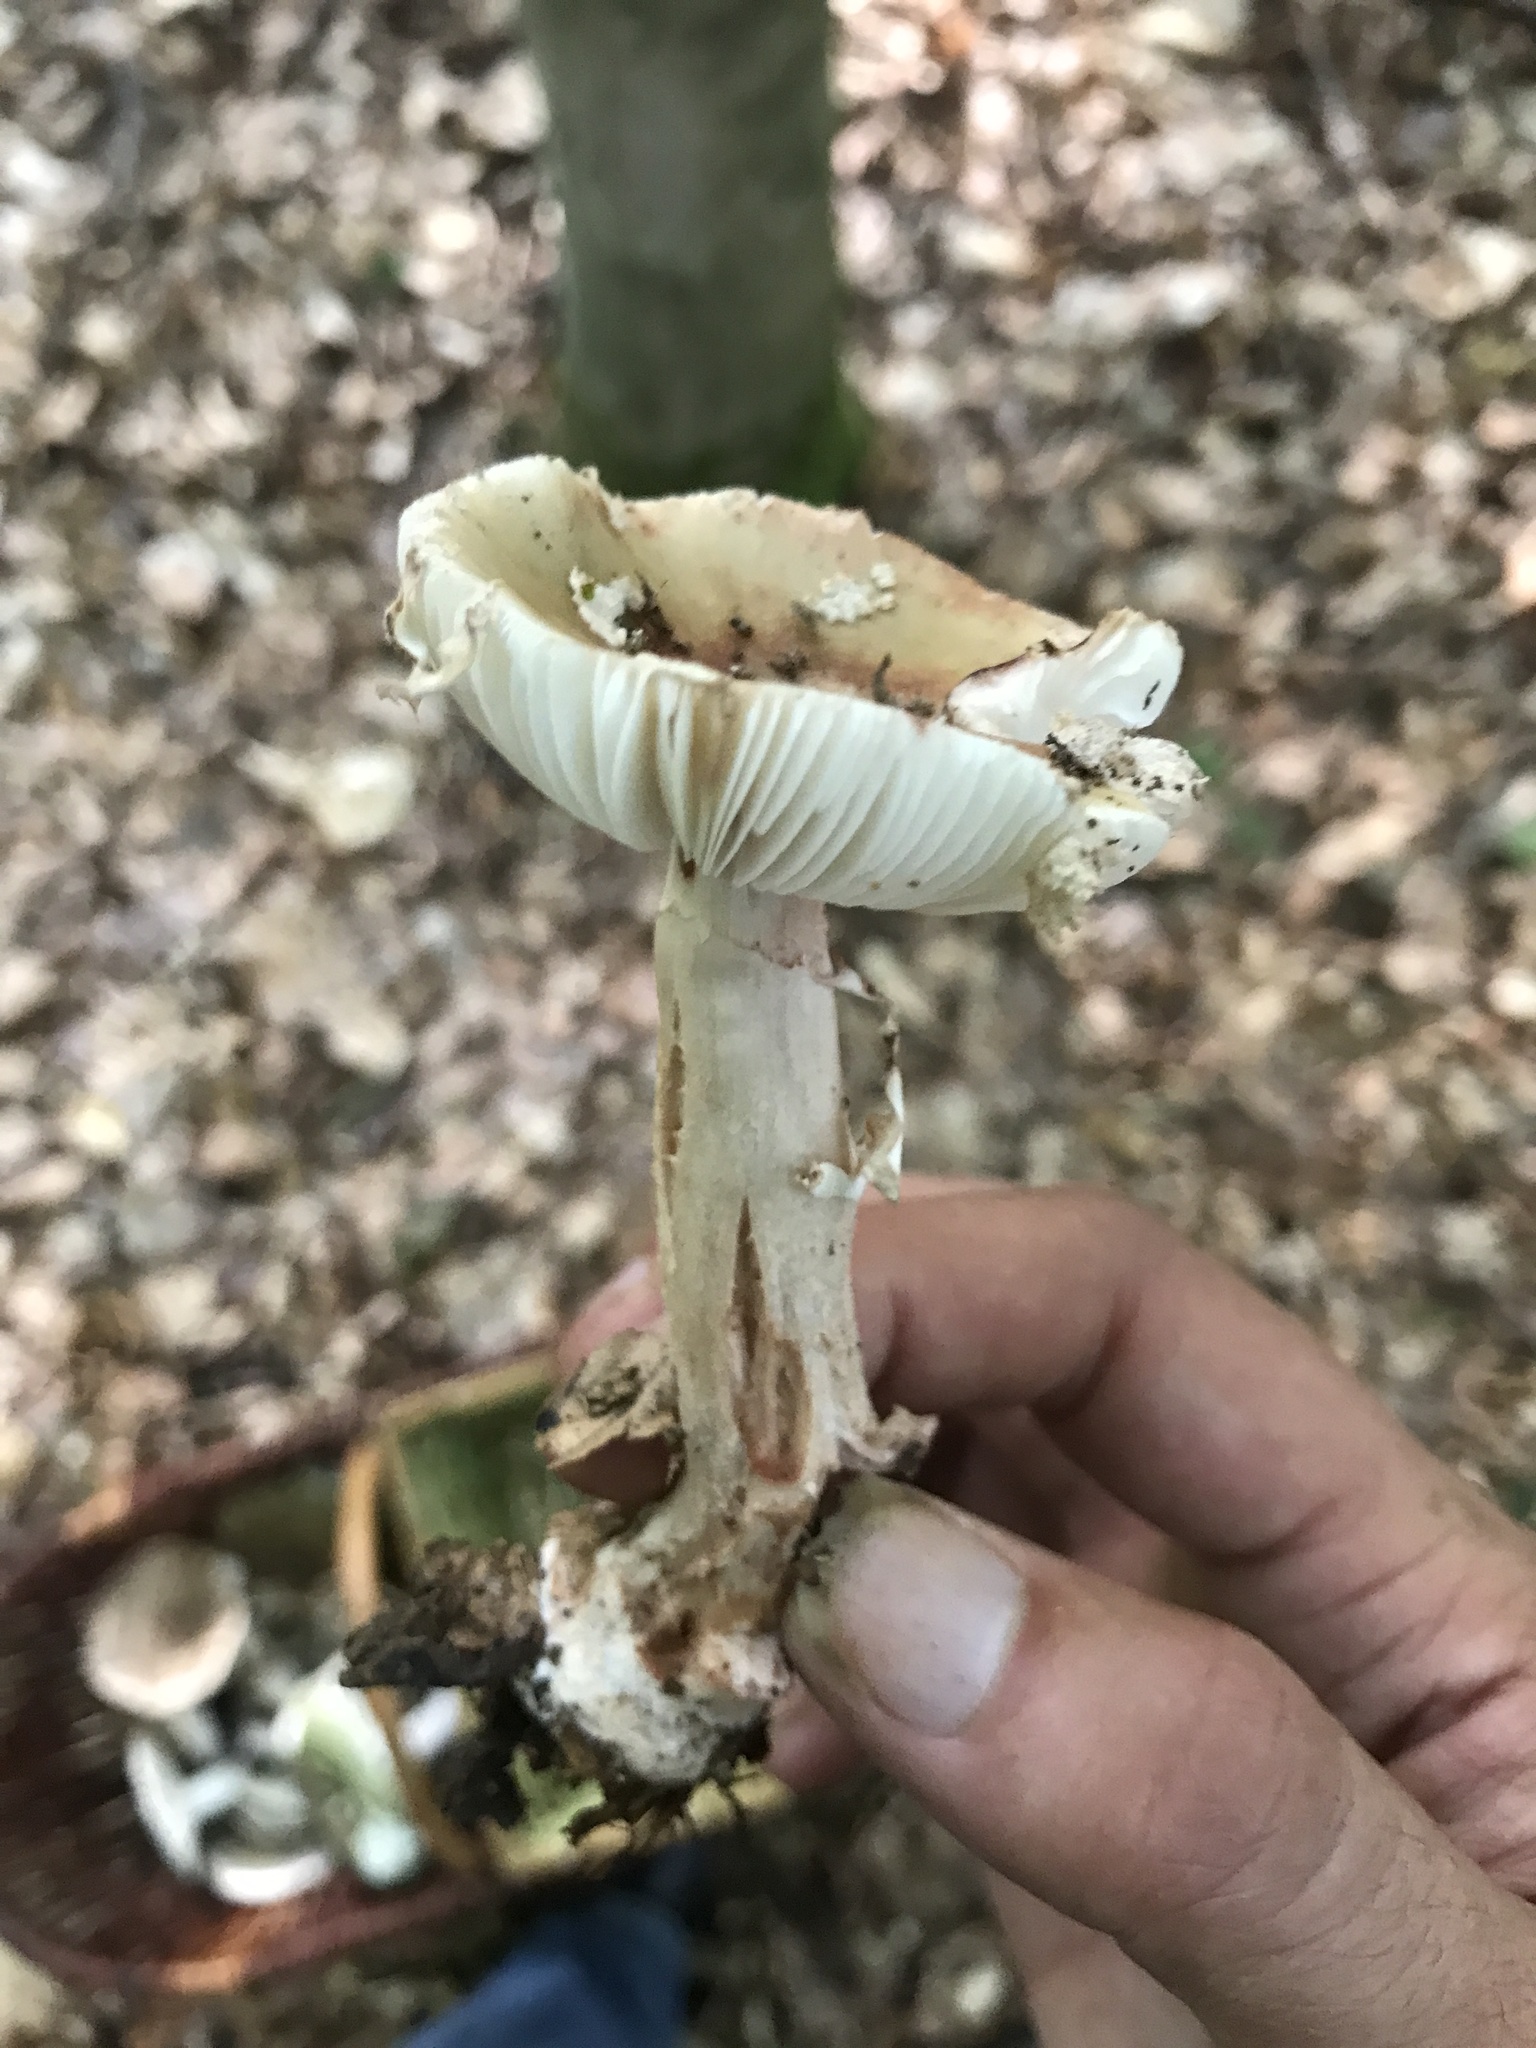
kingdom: Fungi
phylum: Basidiomycota
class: Agaricomycetes
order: Agaricales
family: Amanitaceae
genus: Amanita
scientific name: Amanita rubescens
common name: Blusher
